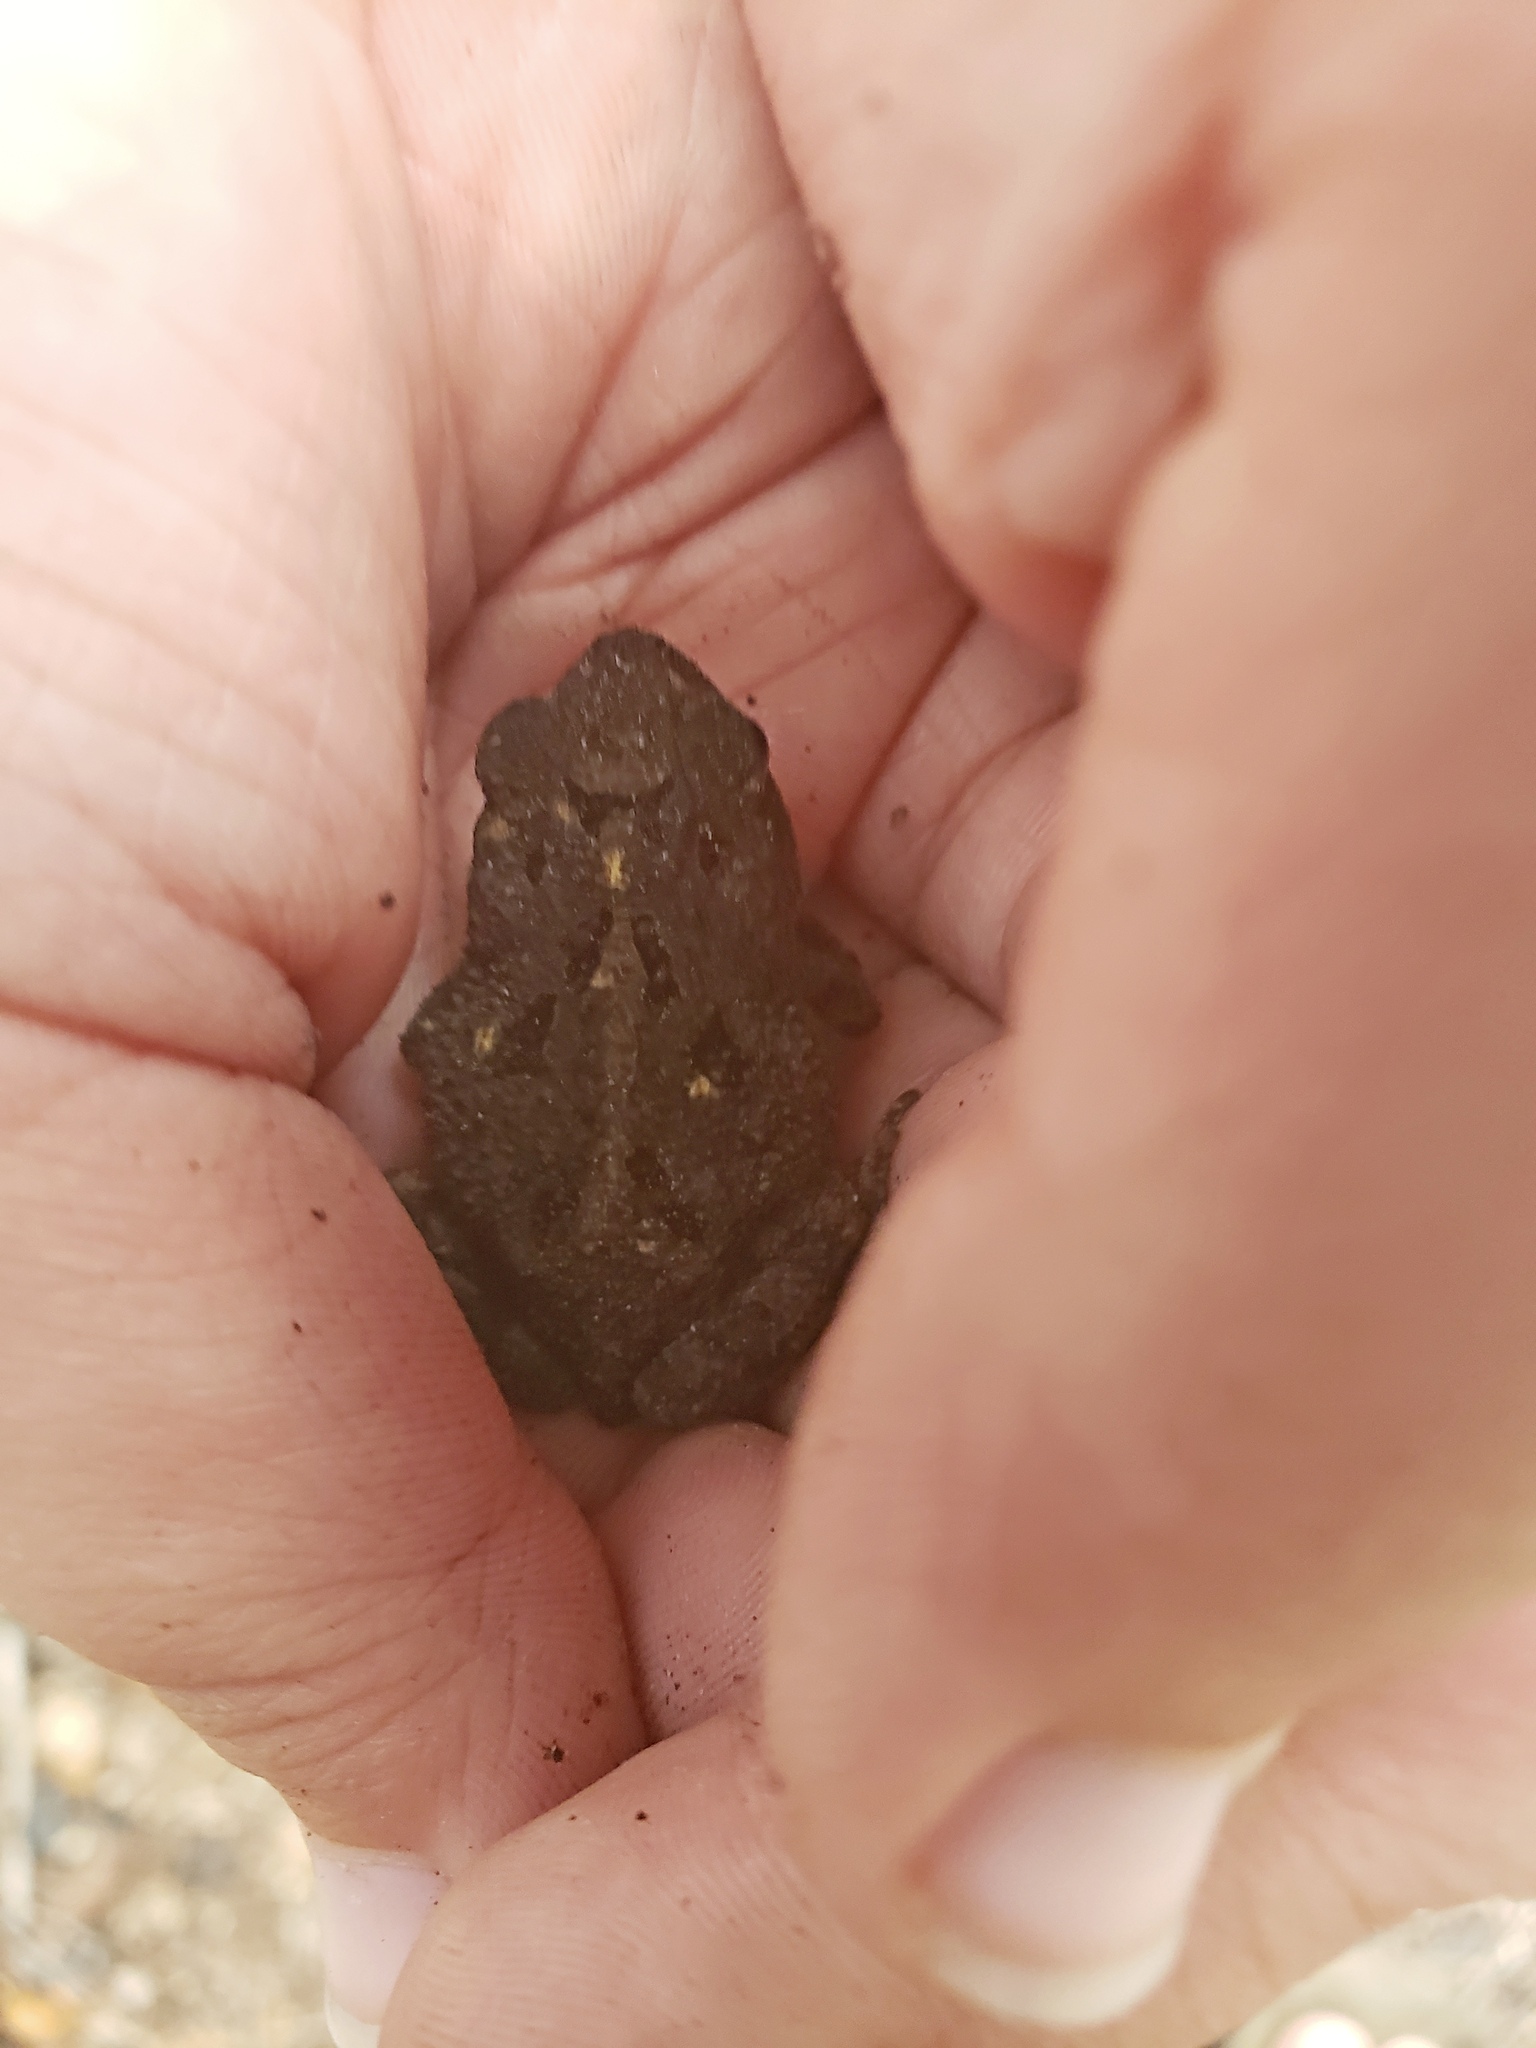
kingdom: Animalia
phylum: Chordata
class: Amphibia
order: Anura
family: Bufonidae
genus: Incilius
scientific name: Incilius nebulifer
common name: Gulf coast toad
